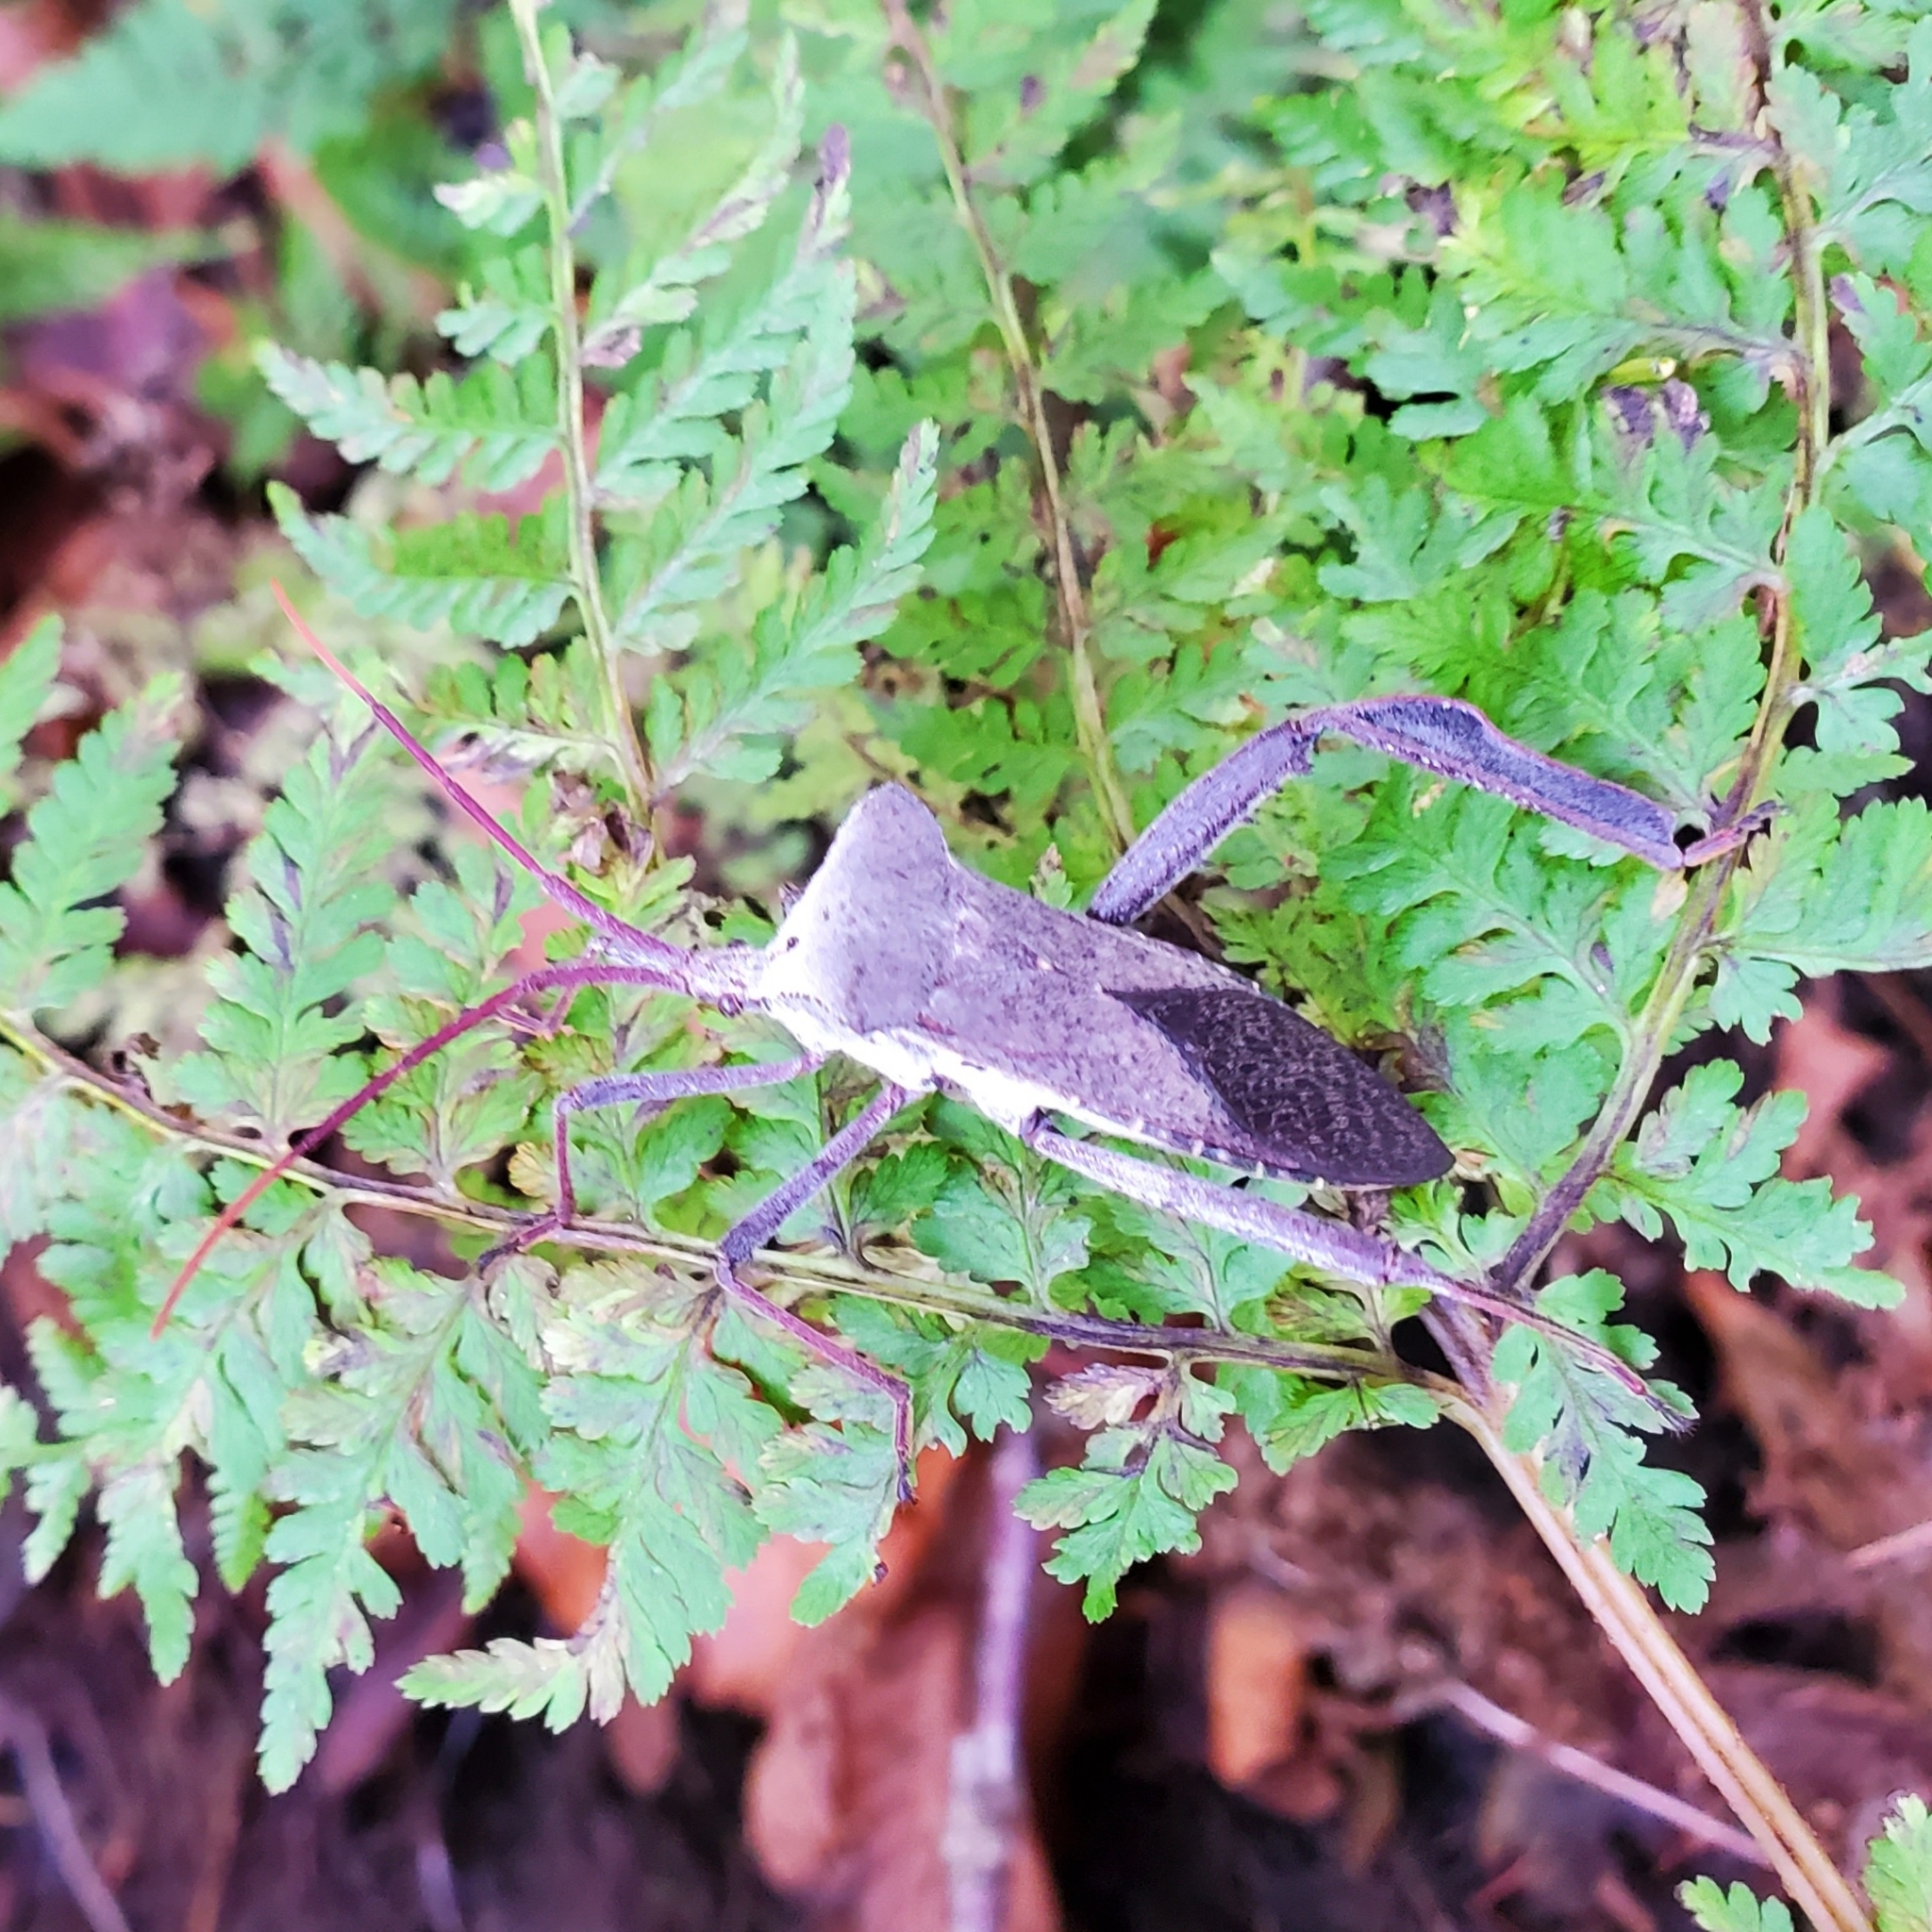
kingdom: Animalia
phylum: Arthropoda
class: Insecta
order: Hemiptera
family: Coreidae
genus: Acanthocephala
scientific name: Acanthocephala declivis
